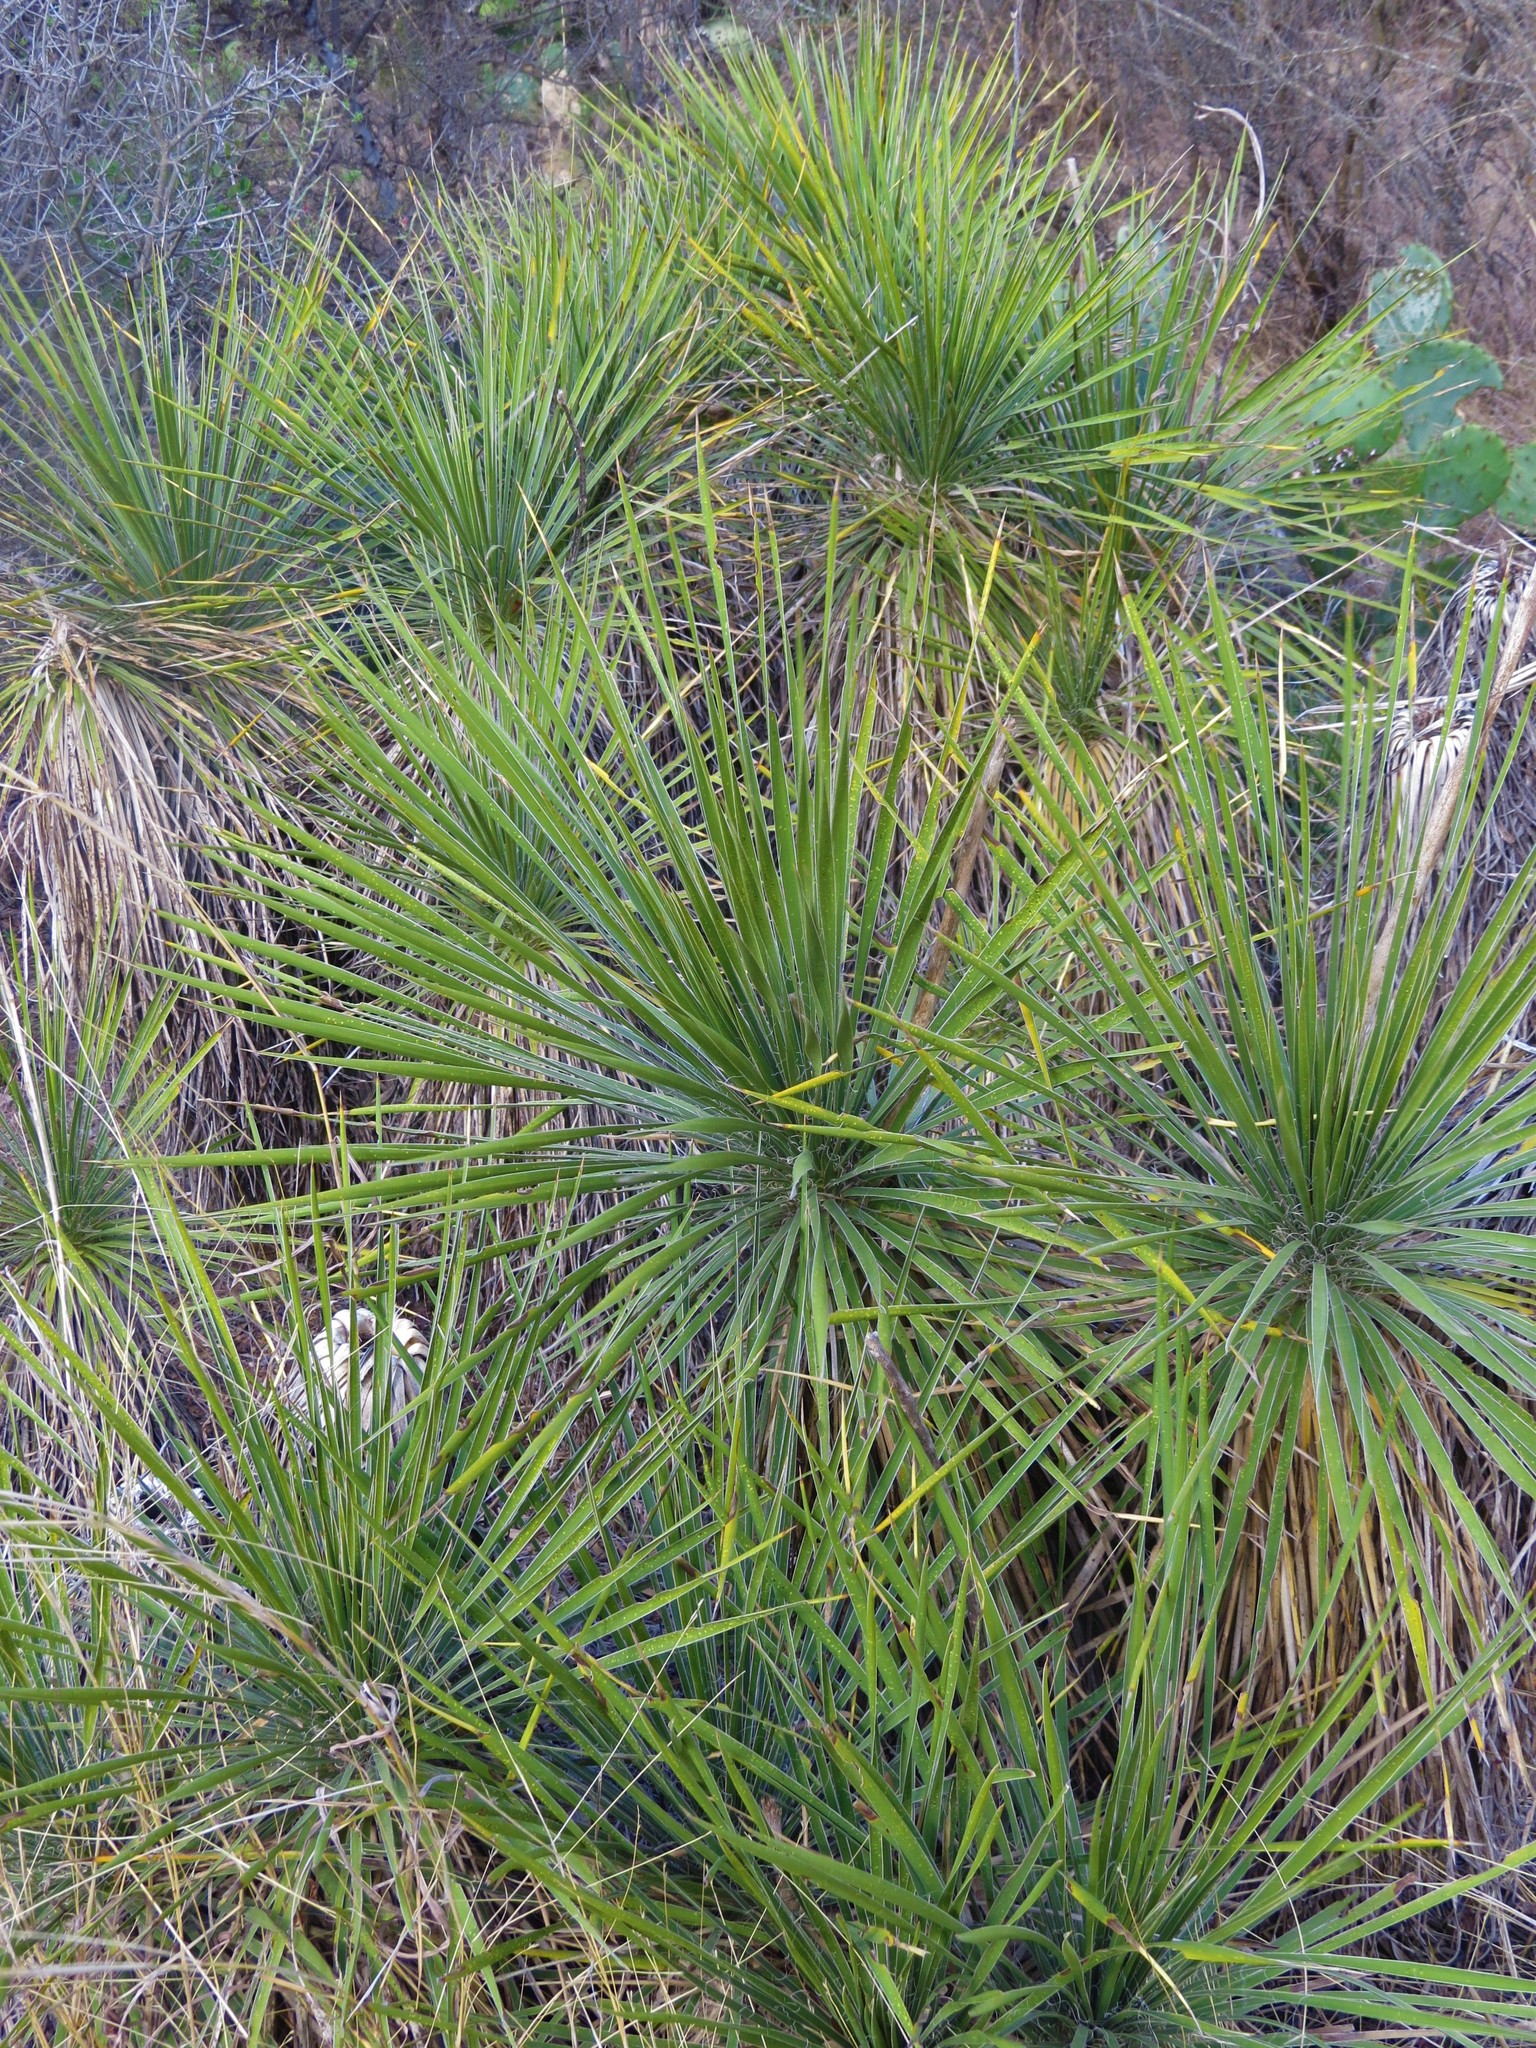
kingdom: Plantae
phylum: Tracheophyta
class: Liliopsida
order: Asparagales
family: Asparagaceae
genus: Yucca
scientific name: Yucca constricta
